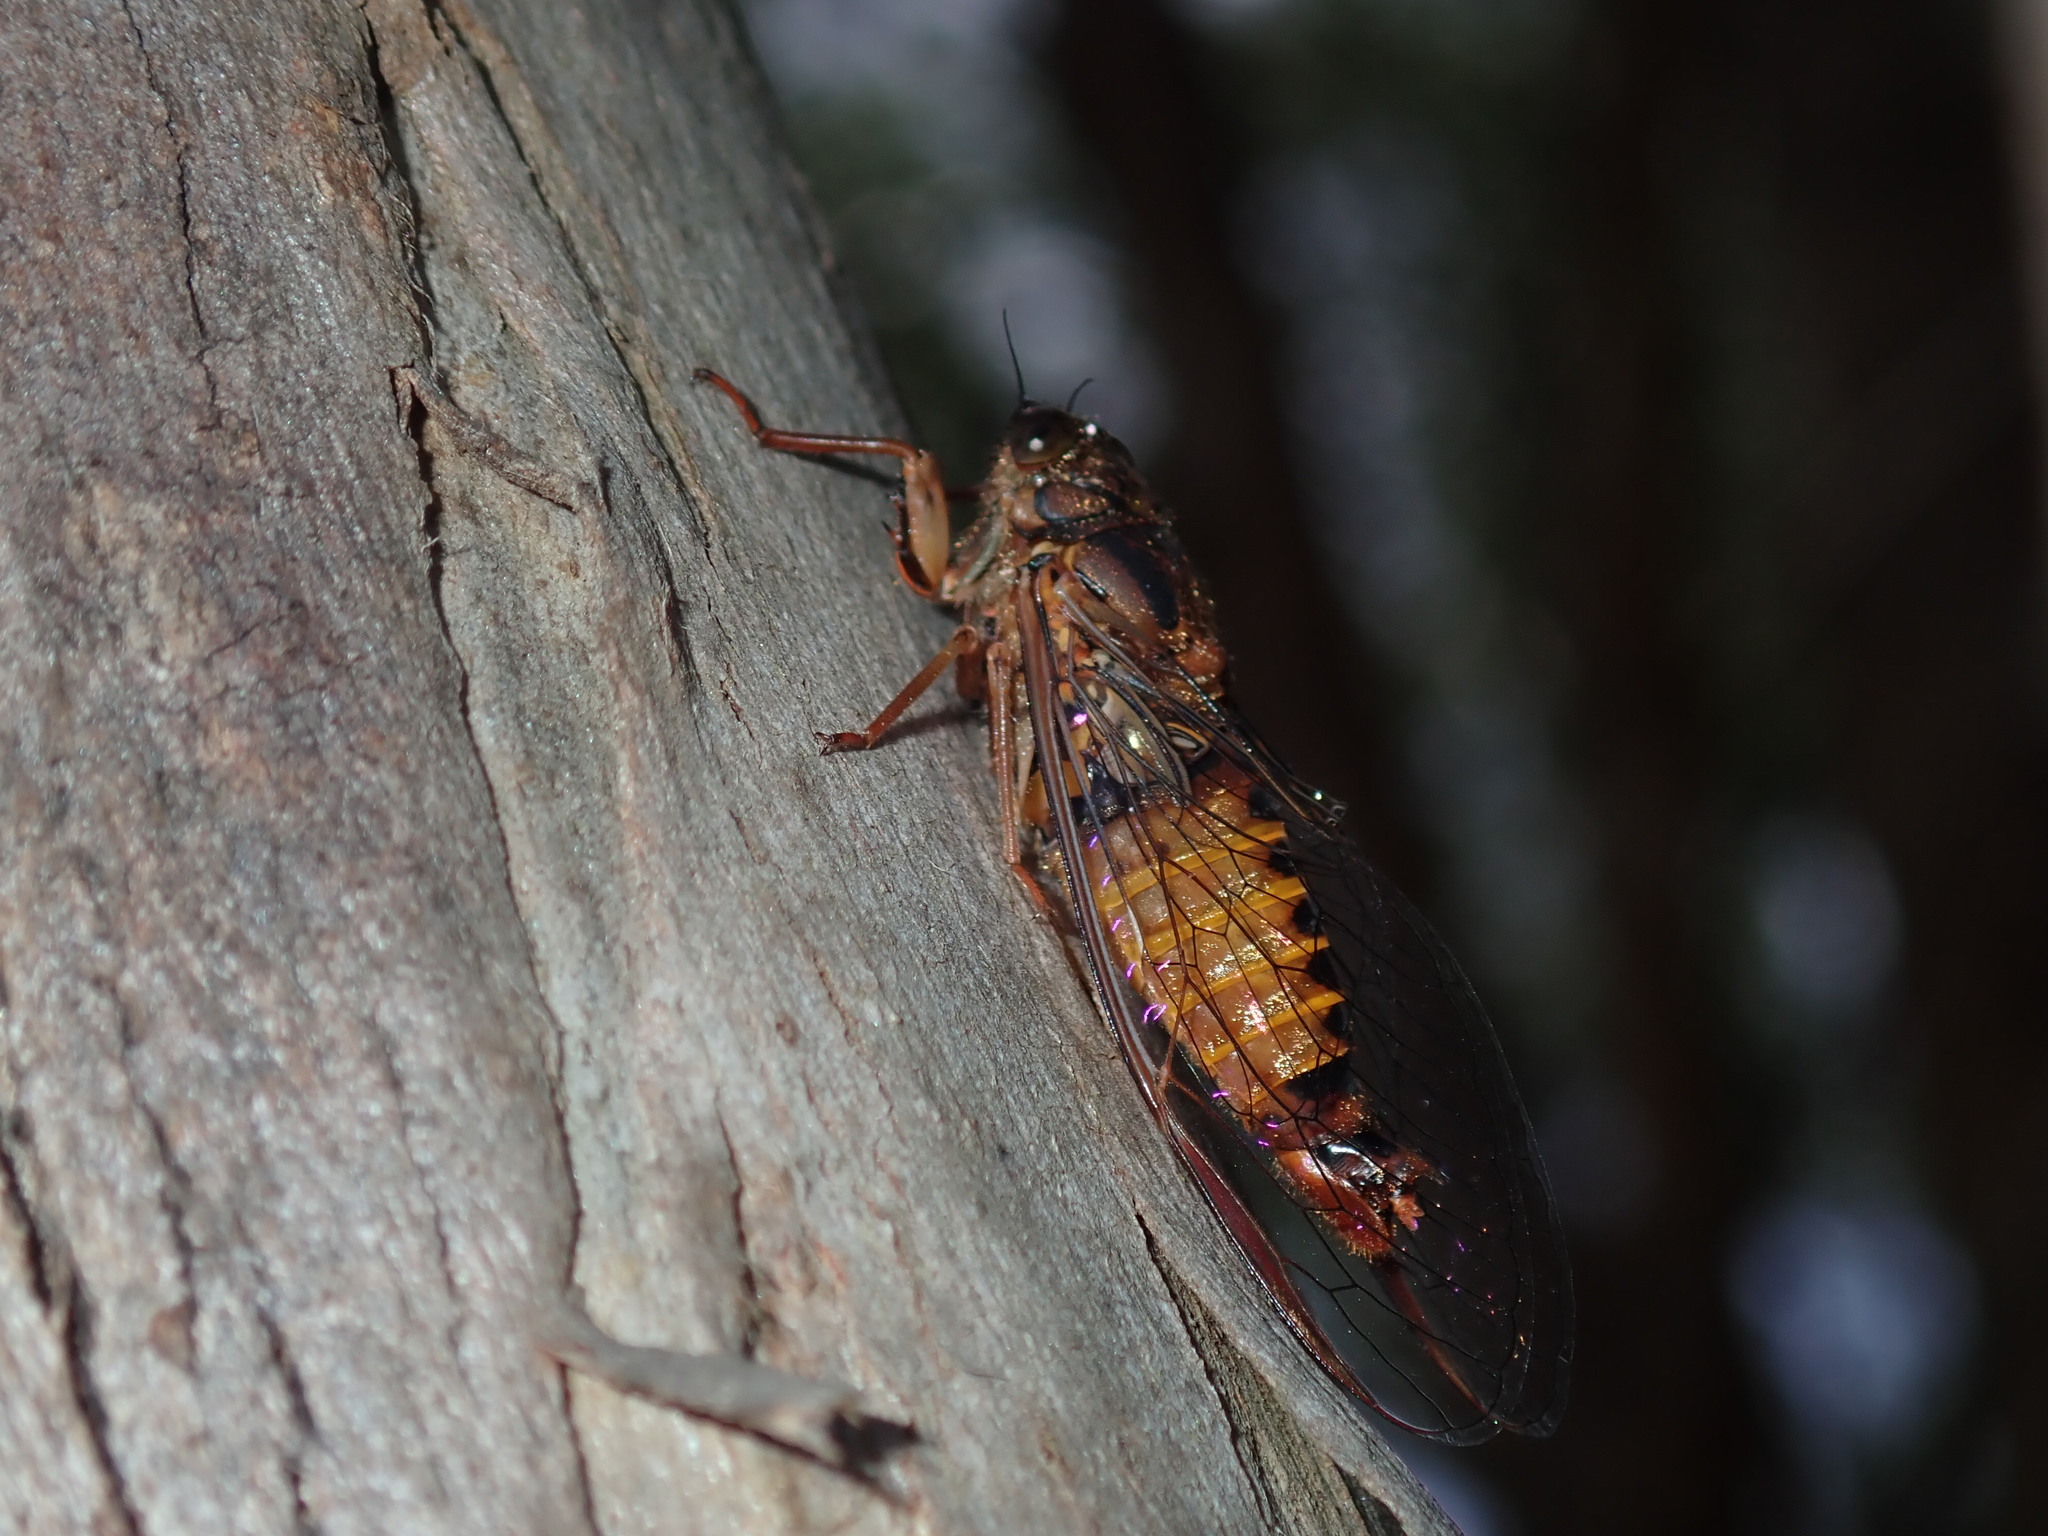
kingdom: Animalia
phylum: Arthropoda
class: Insecta
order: Hemiptera
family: Cicadidae
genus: Yoyetta
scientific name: Yoyetta cumberlandi
